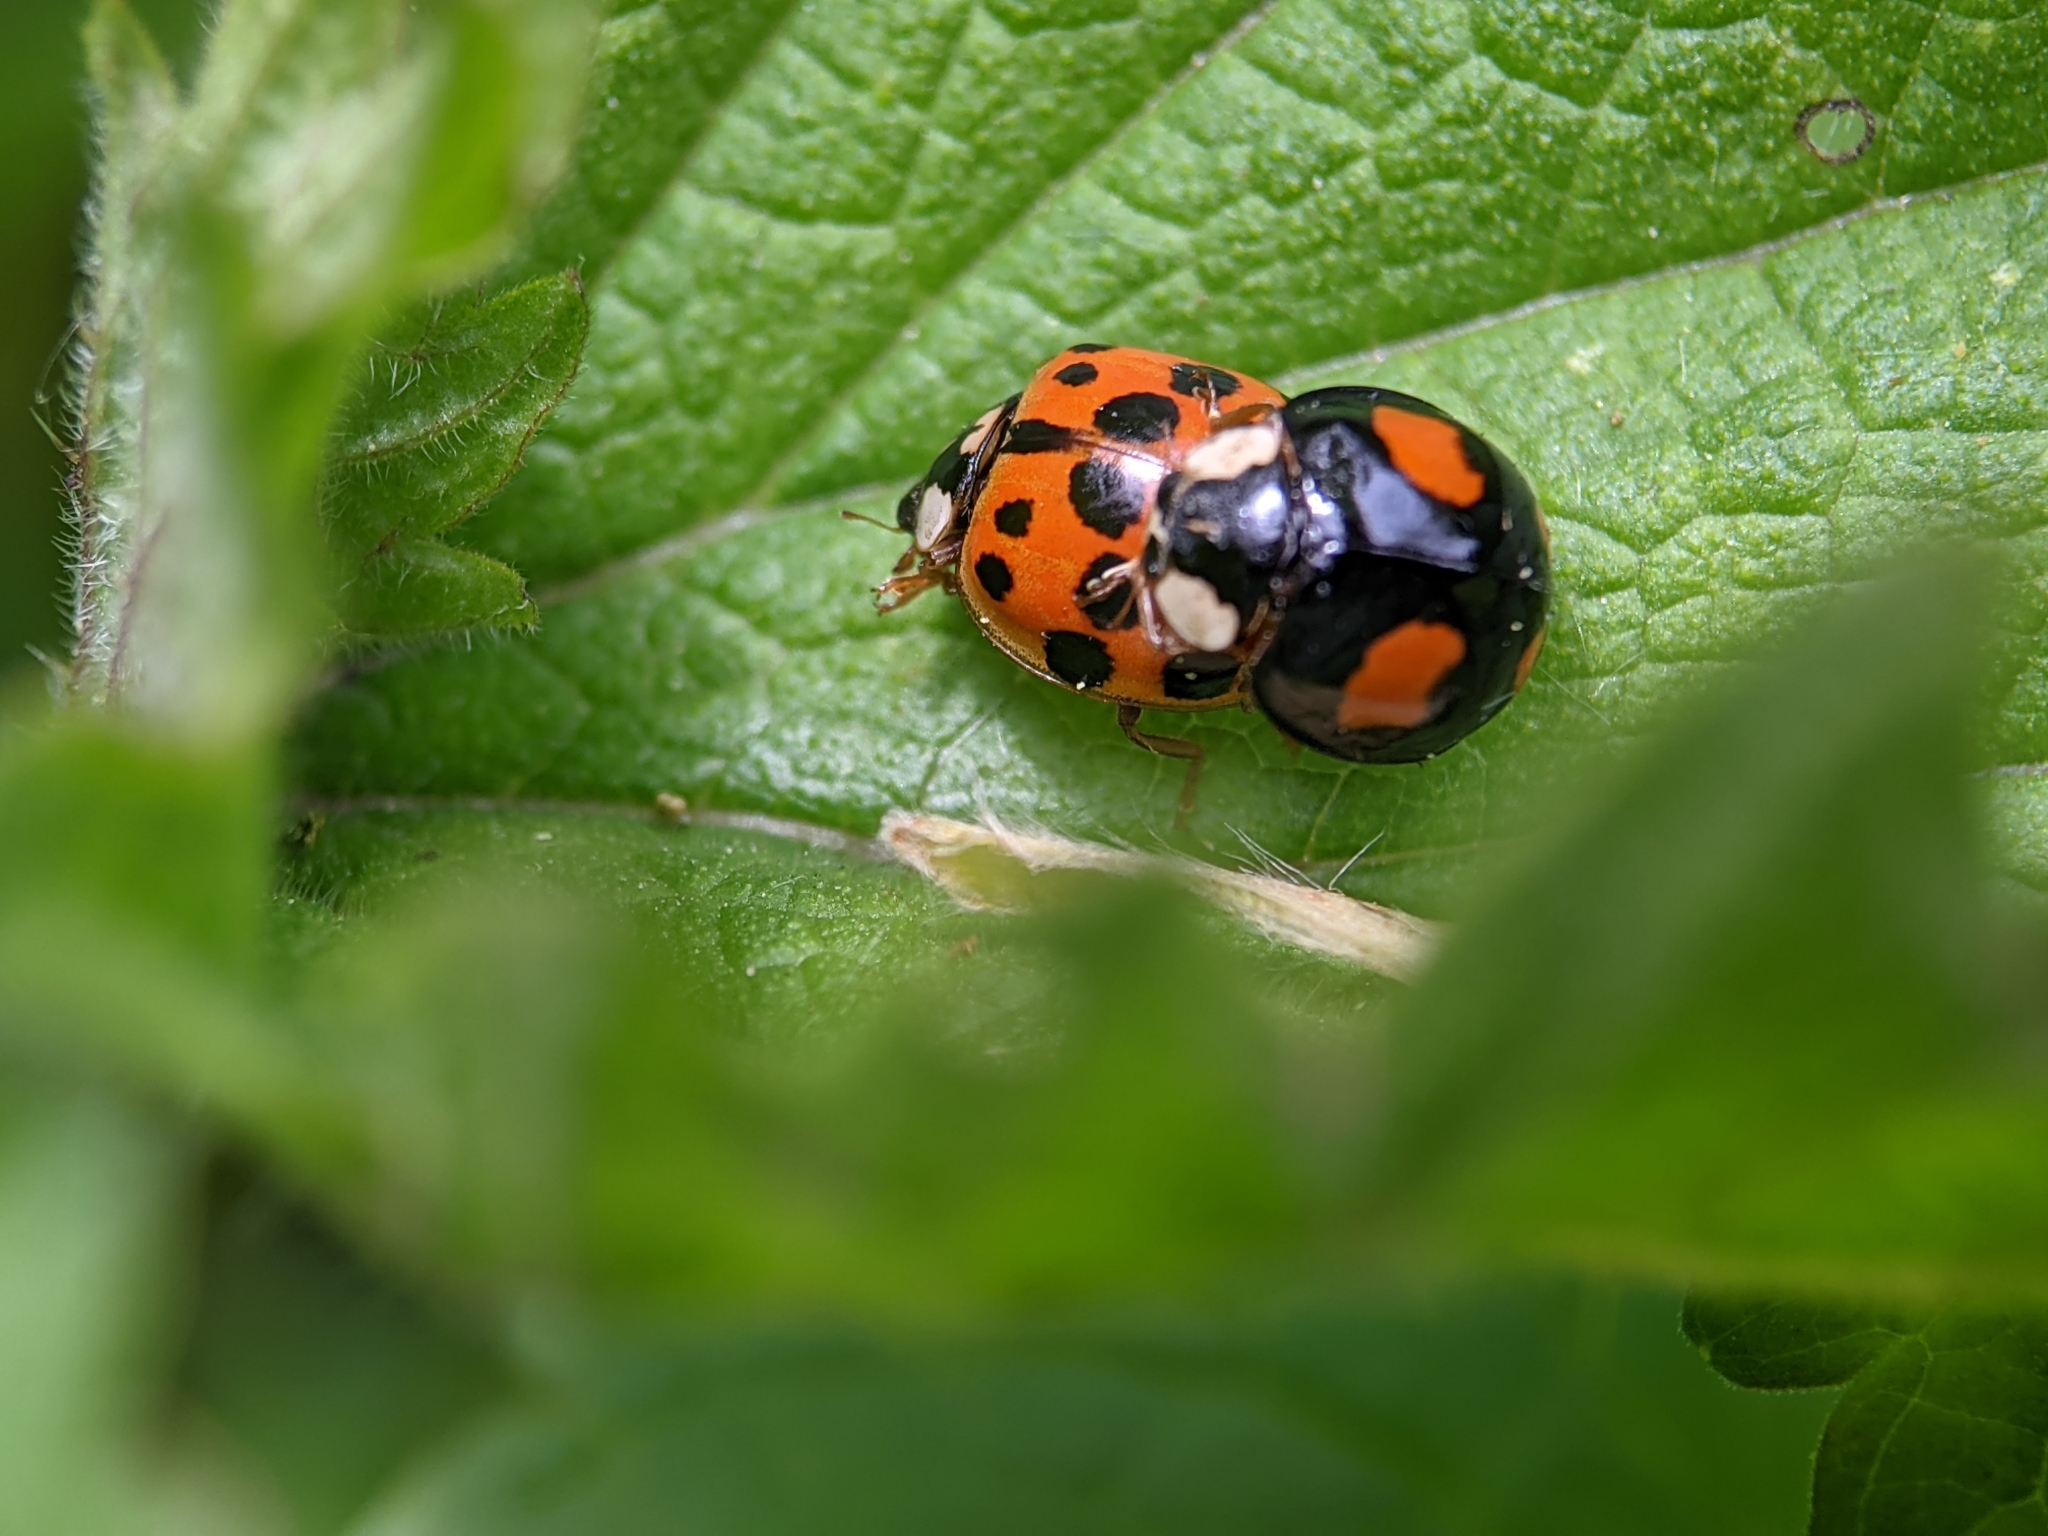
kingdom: Animalia
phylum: Arthropoda
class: Insecta
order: Coleoptera
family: Coccinellidae
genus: Harmonia
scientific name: Harmonia axyridis
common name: Harlequin ladybird
